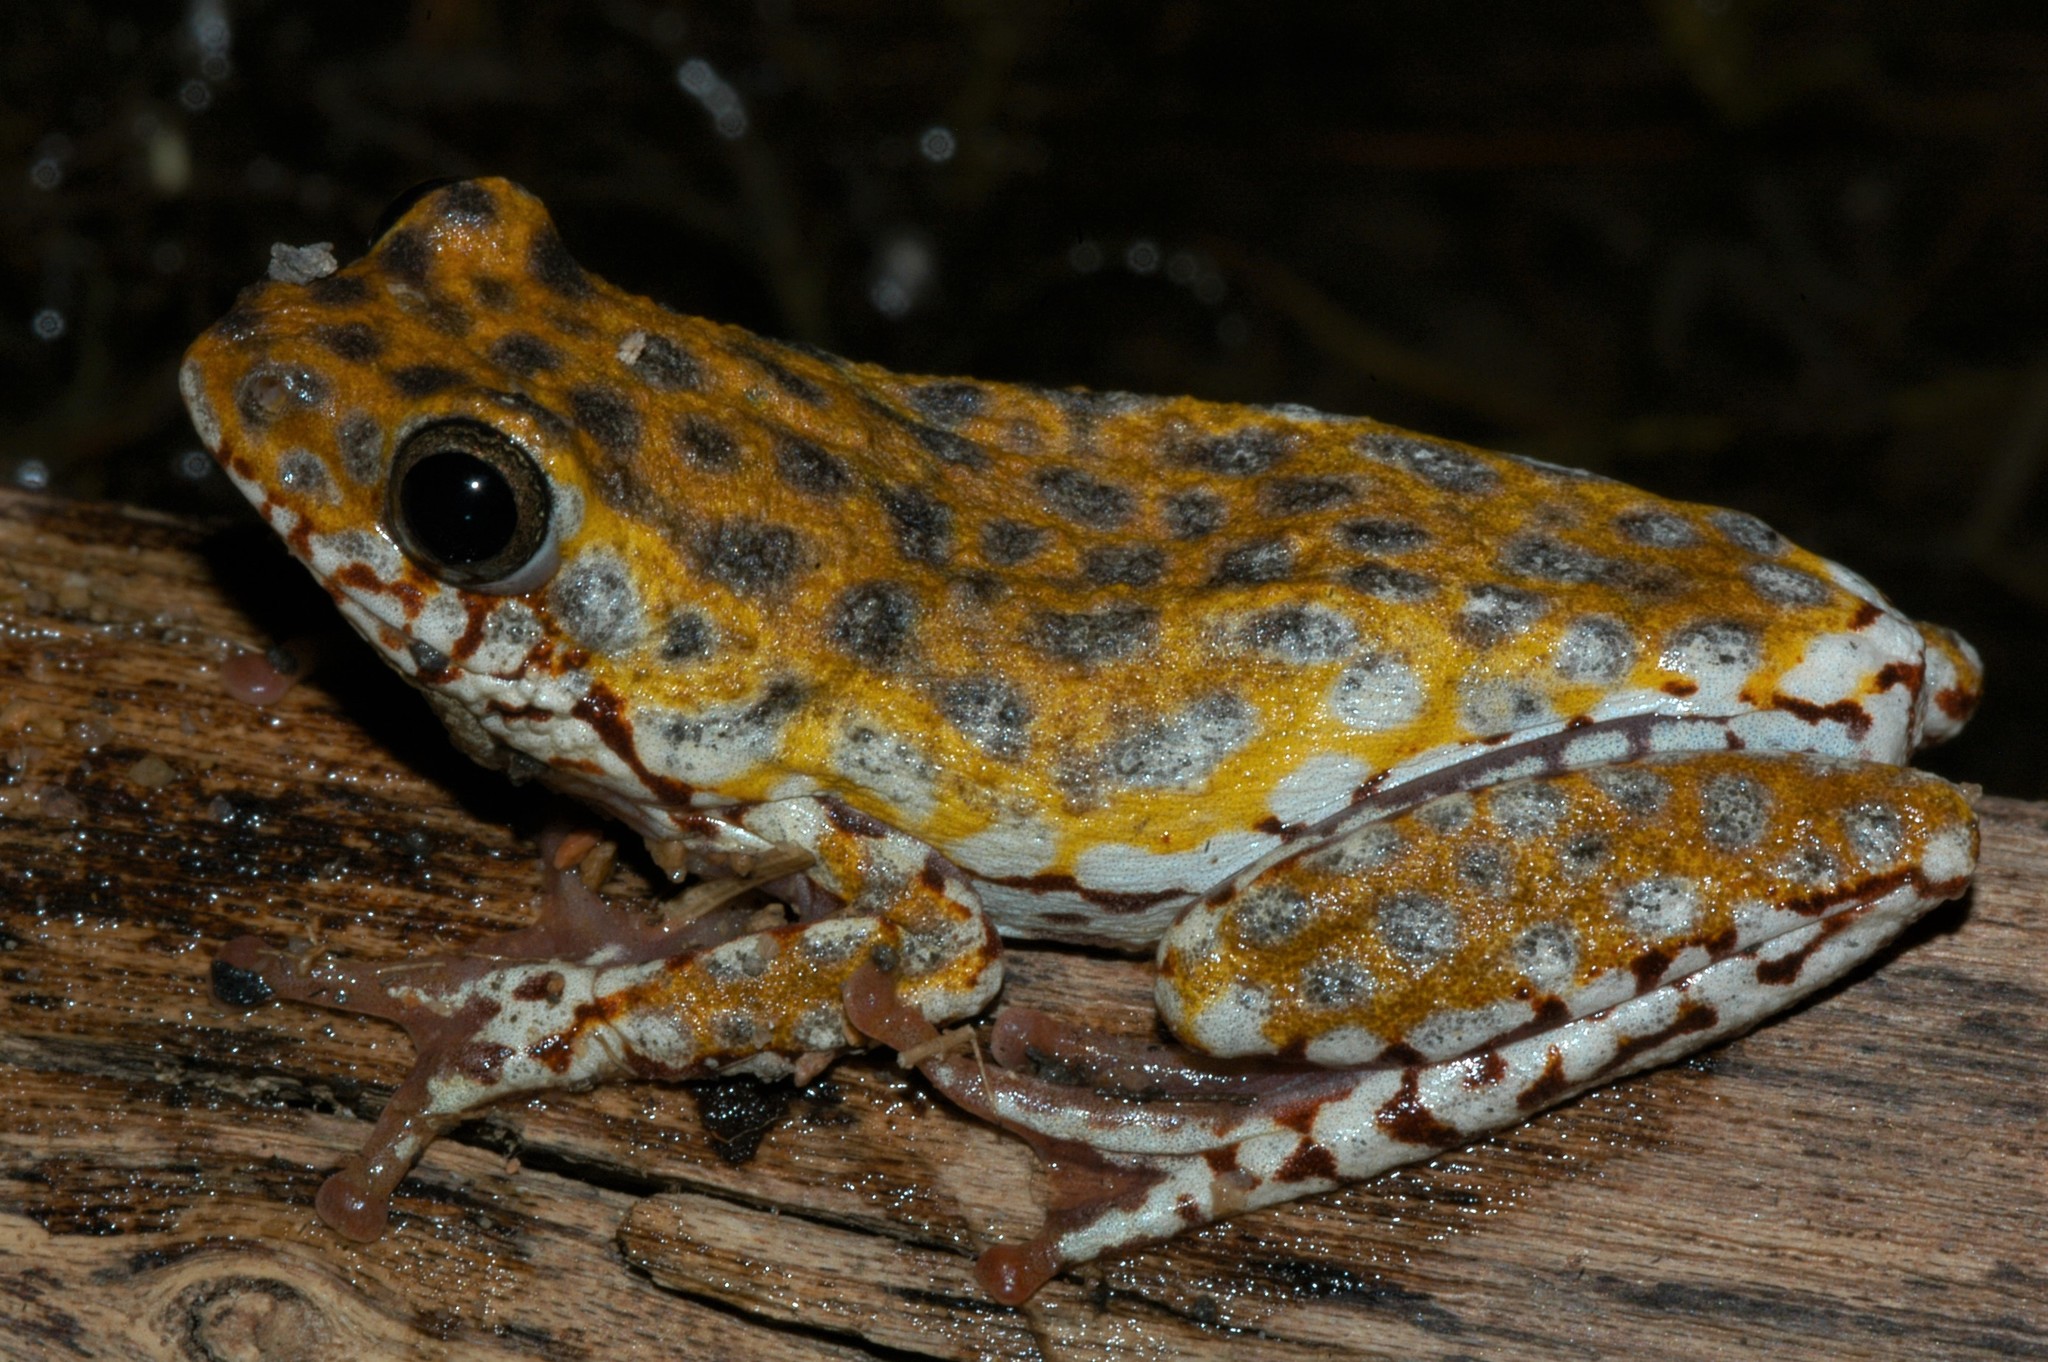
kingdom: Animalia
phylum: Chordata
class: Amphibia
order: Anura
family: Hyperoliidae
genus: Hyperolius
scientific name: Hyperolius marginatus
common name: Silver-striped sedgefrog
